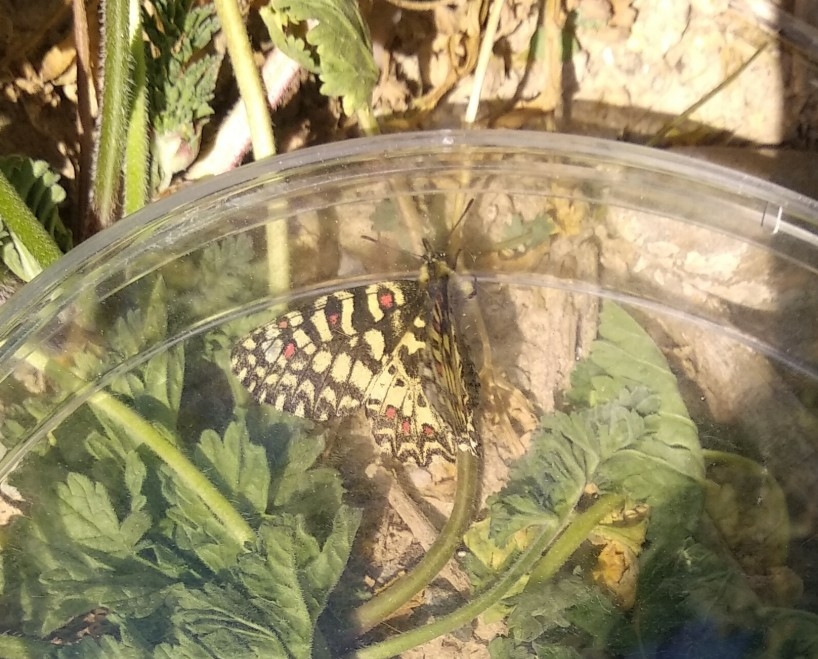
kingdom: Animalia
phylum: Arthropoda
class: Insecta
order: Lepidoptera
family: Papilionidae
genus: Zerynthia
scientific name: Zerynthia rumina
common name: Spanish festoon
